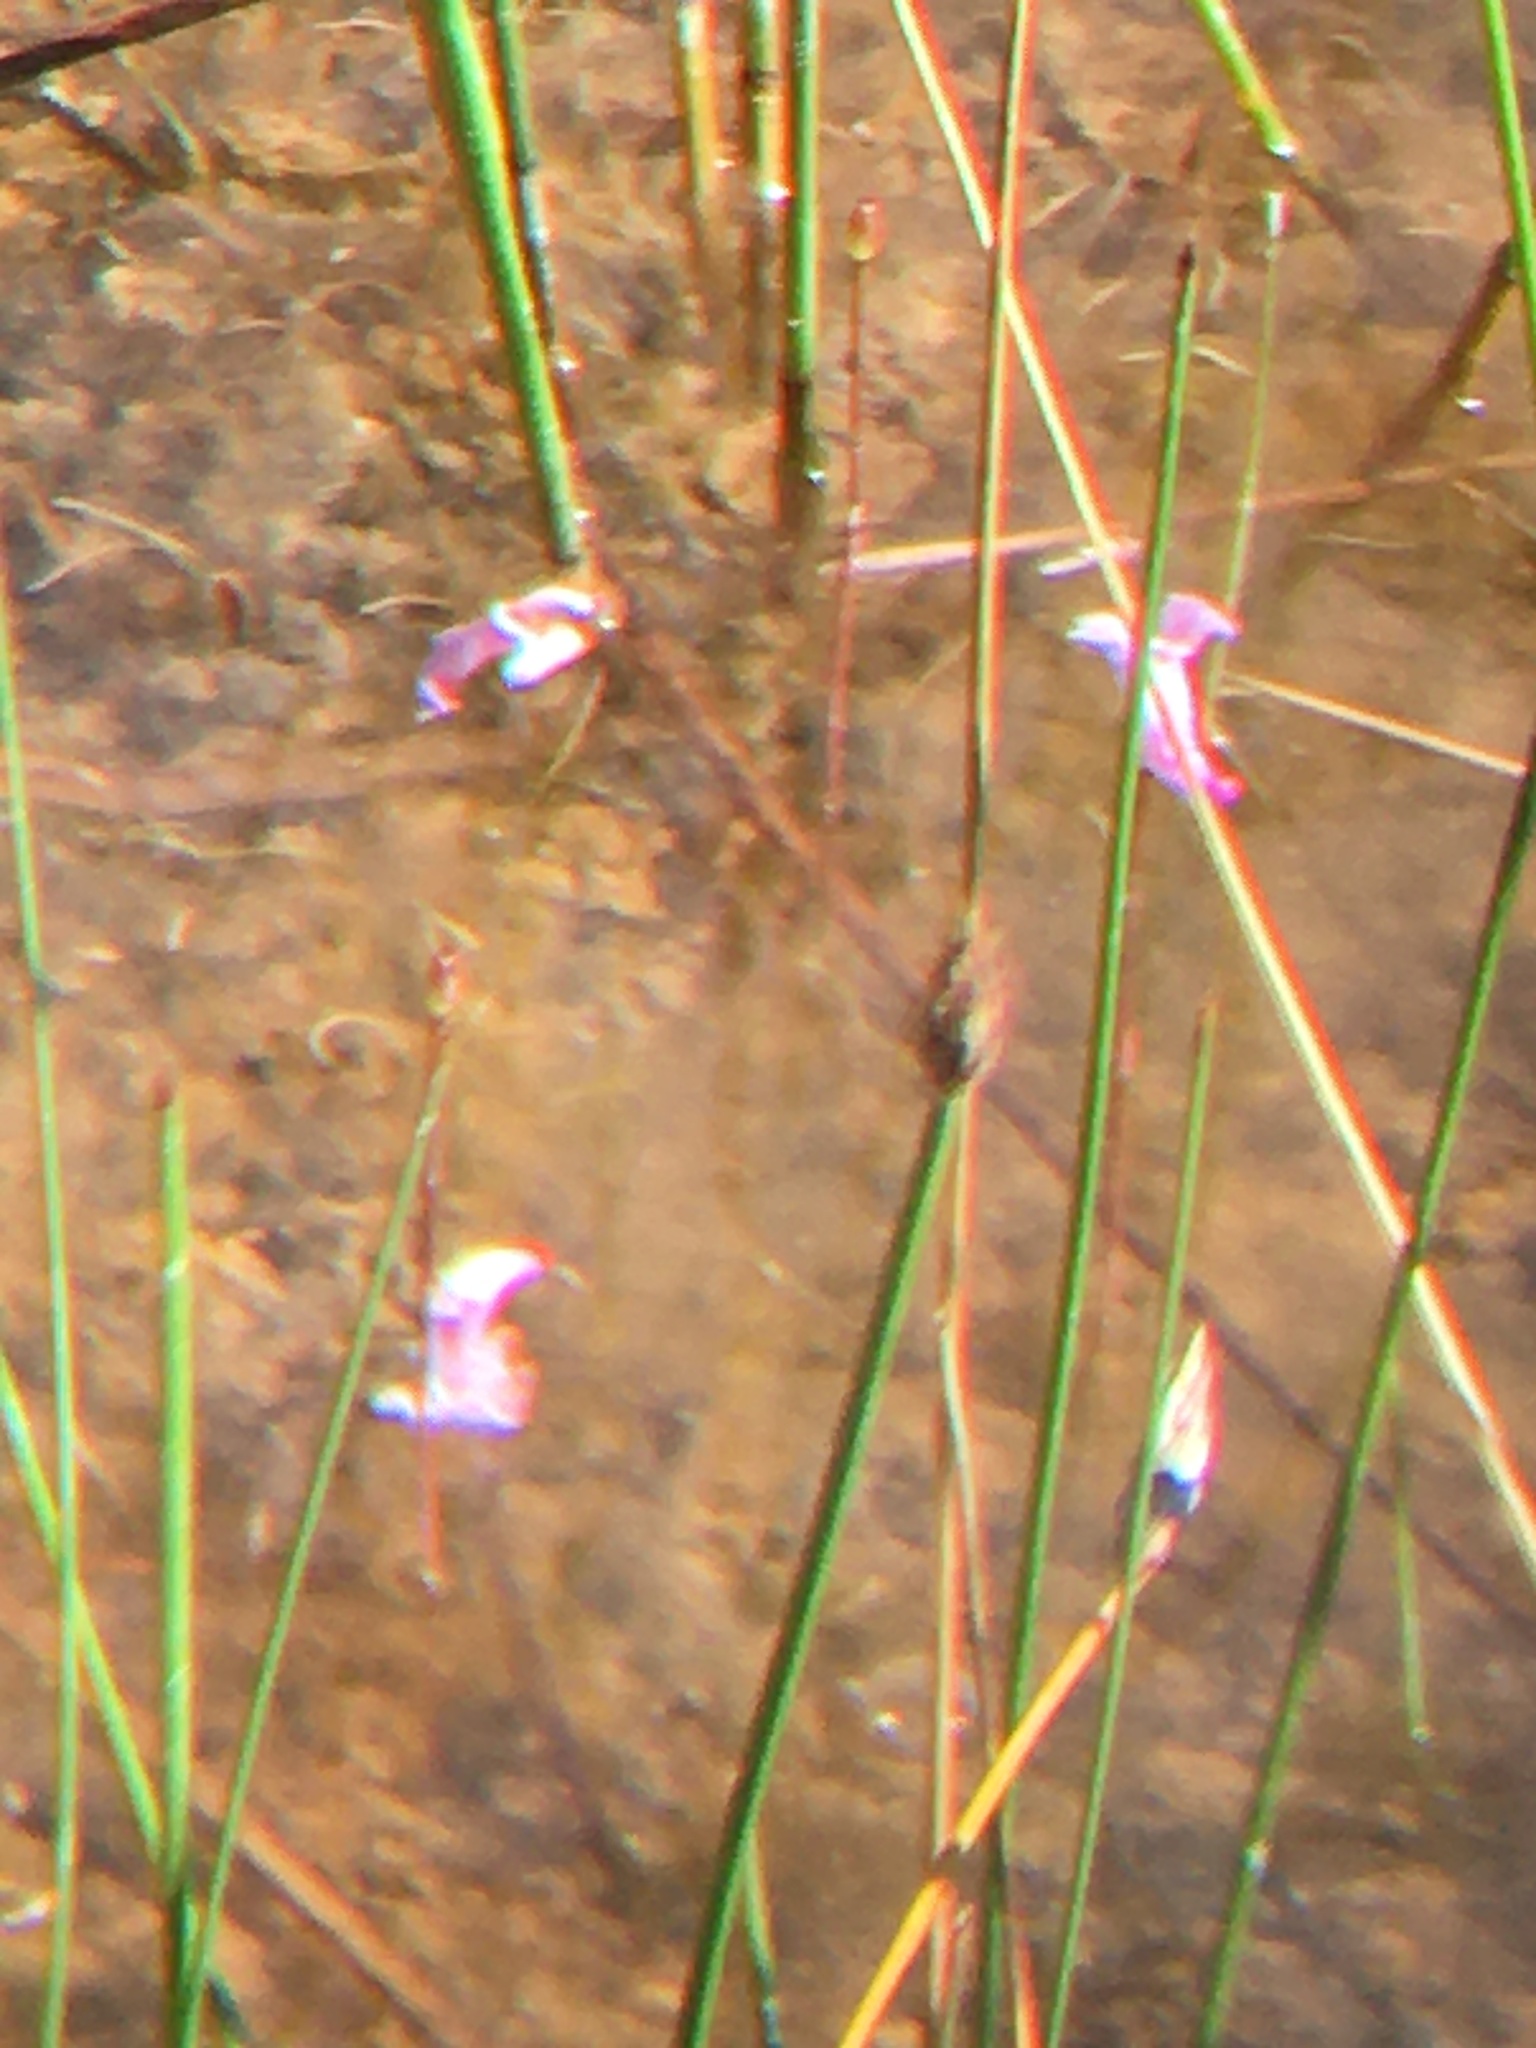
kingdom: Plantae
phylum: Tracheophyta
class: Magnoliopsida
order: Lamiales
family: Lentibulariaceae
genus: Utricularia
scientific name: Utricularia resupinata
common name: Northeastern bladderwort
